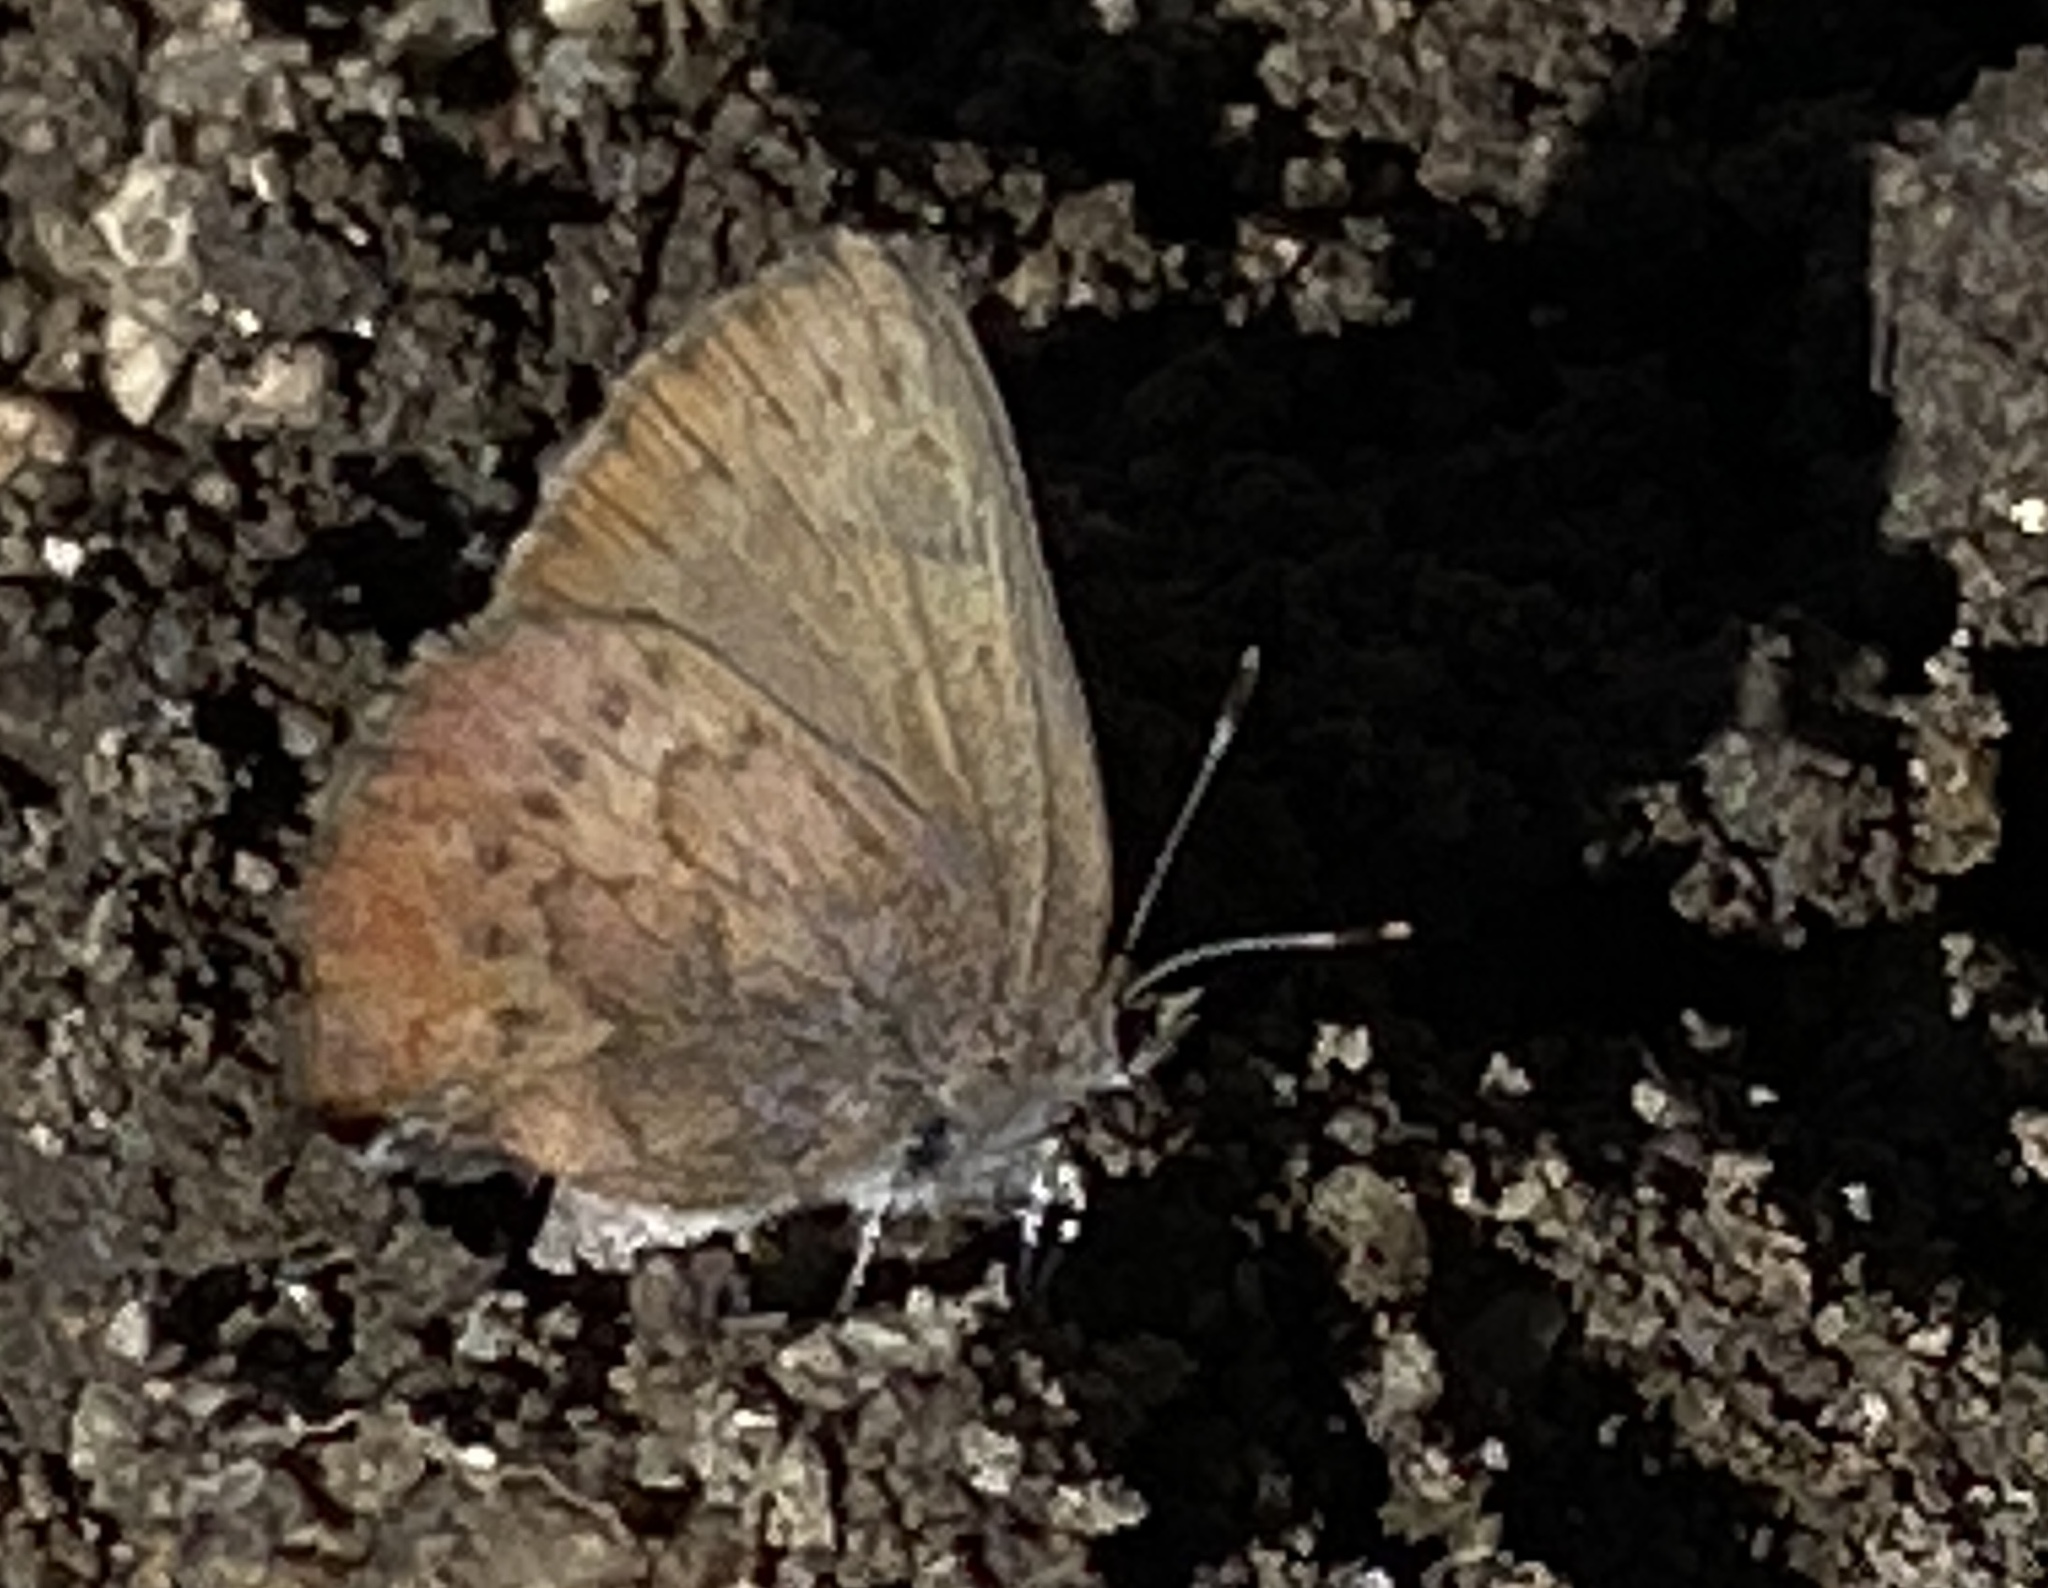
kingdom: Animalia
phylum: Arthropoda
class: Insecta
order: Lepidoptera
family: Lycaenidae
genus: Incisalia
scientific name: Incisalia irioides
